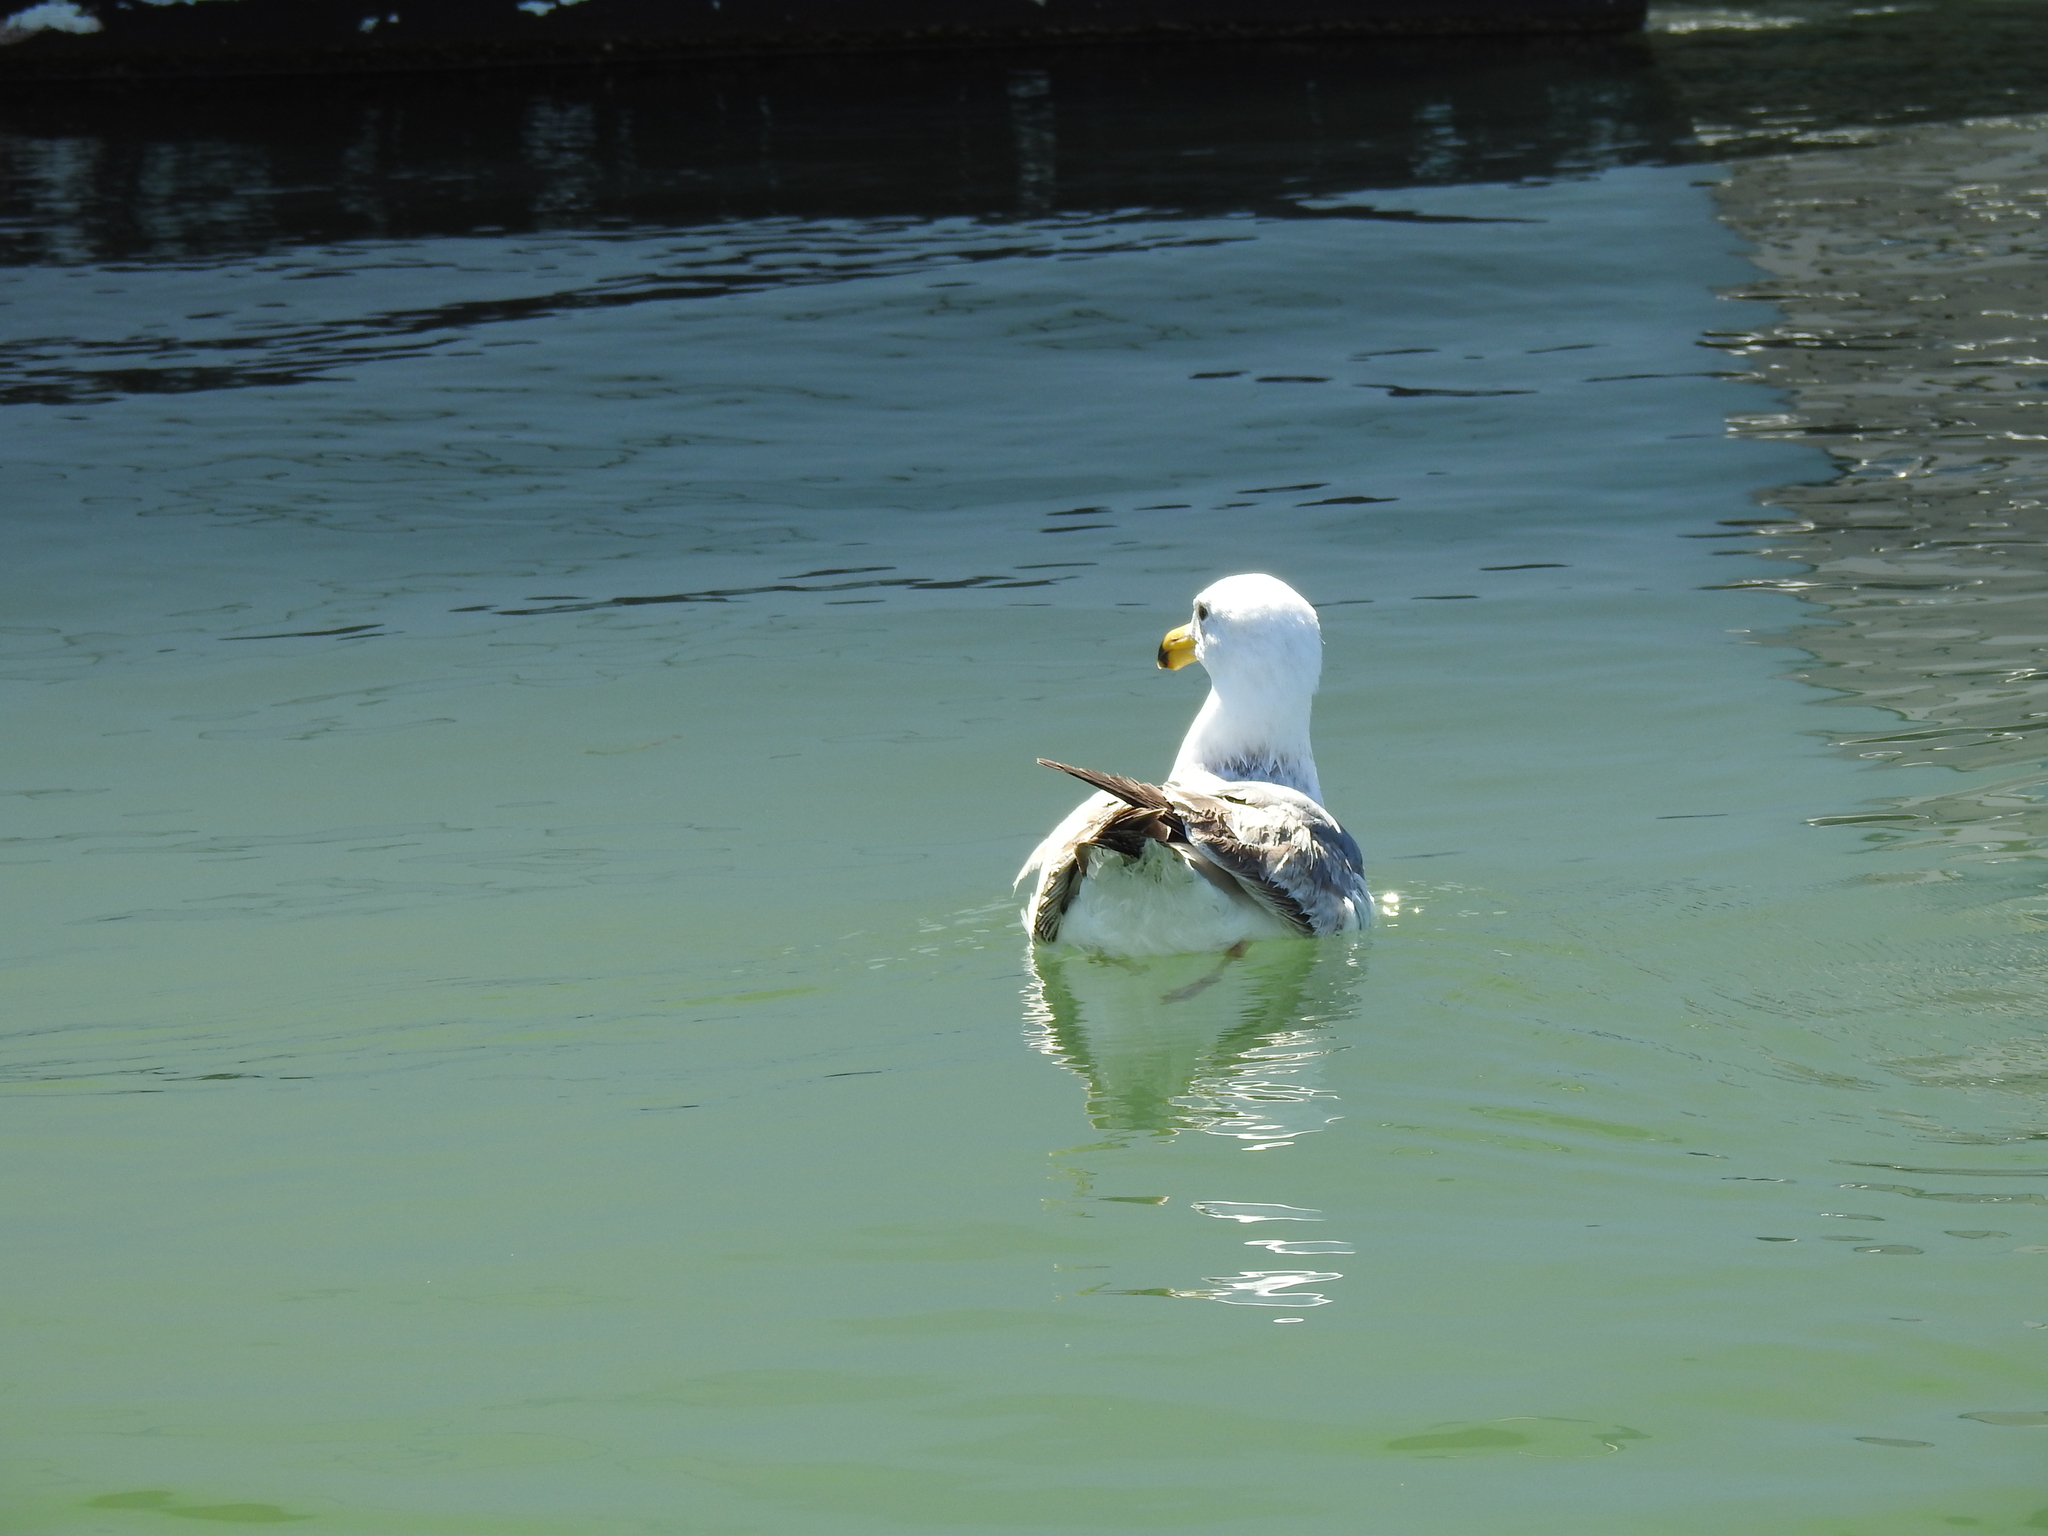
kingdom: Animalia
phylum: Chordata
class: Aves
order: Charadriiformes
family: Laridae
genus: Larus
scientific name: Larus occidentalis
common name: Western gull
